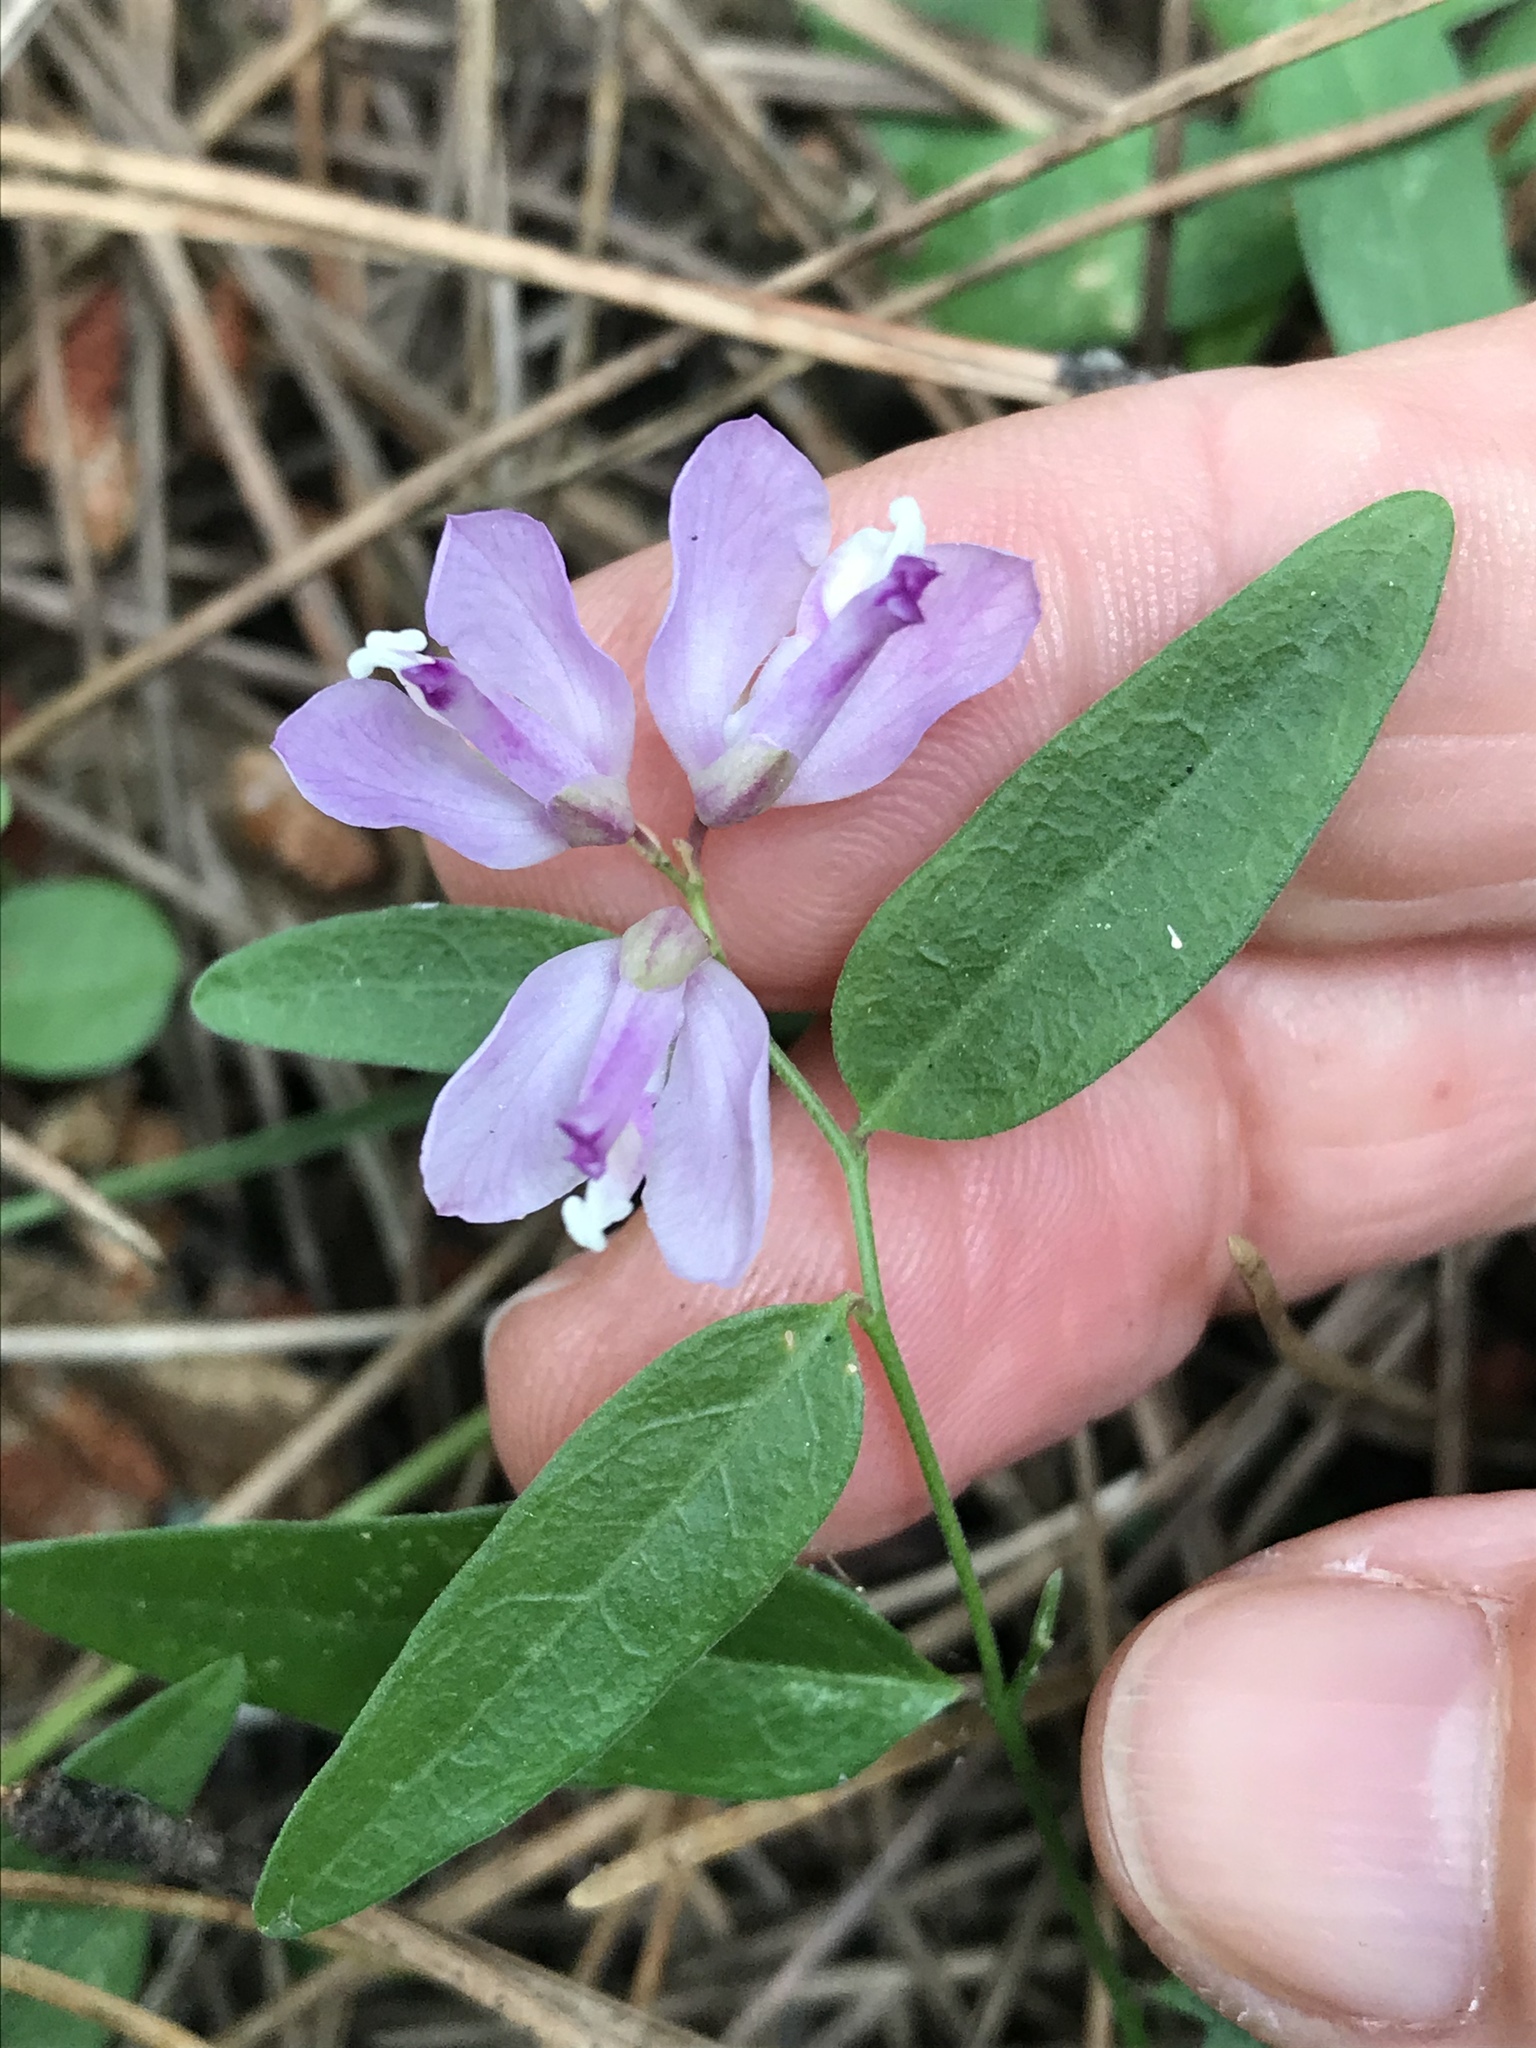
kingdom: Plantae
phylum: Tracheophyta
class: Magnoliopsida
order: Fabales
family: Polygalaceae
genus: Rhinotropis
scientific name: Rhinotropis californica
